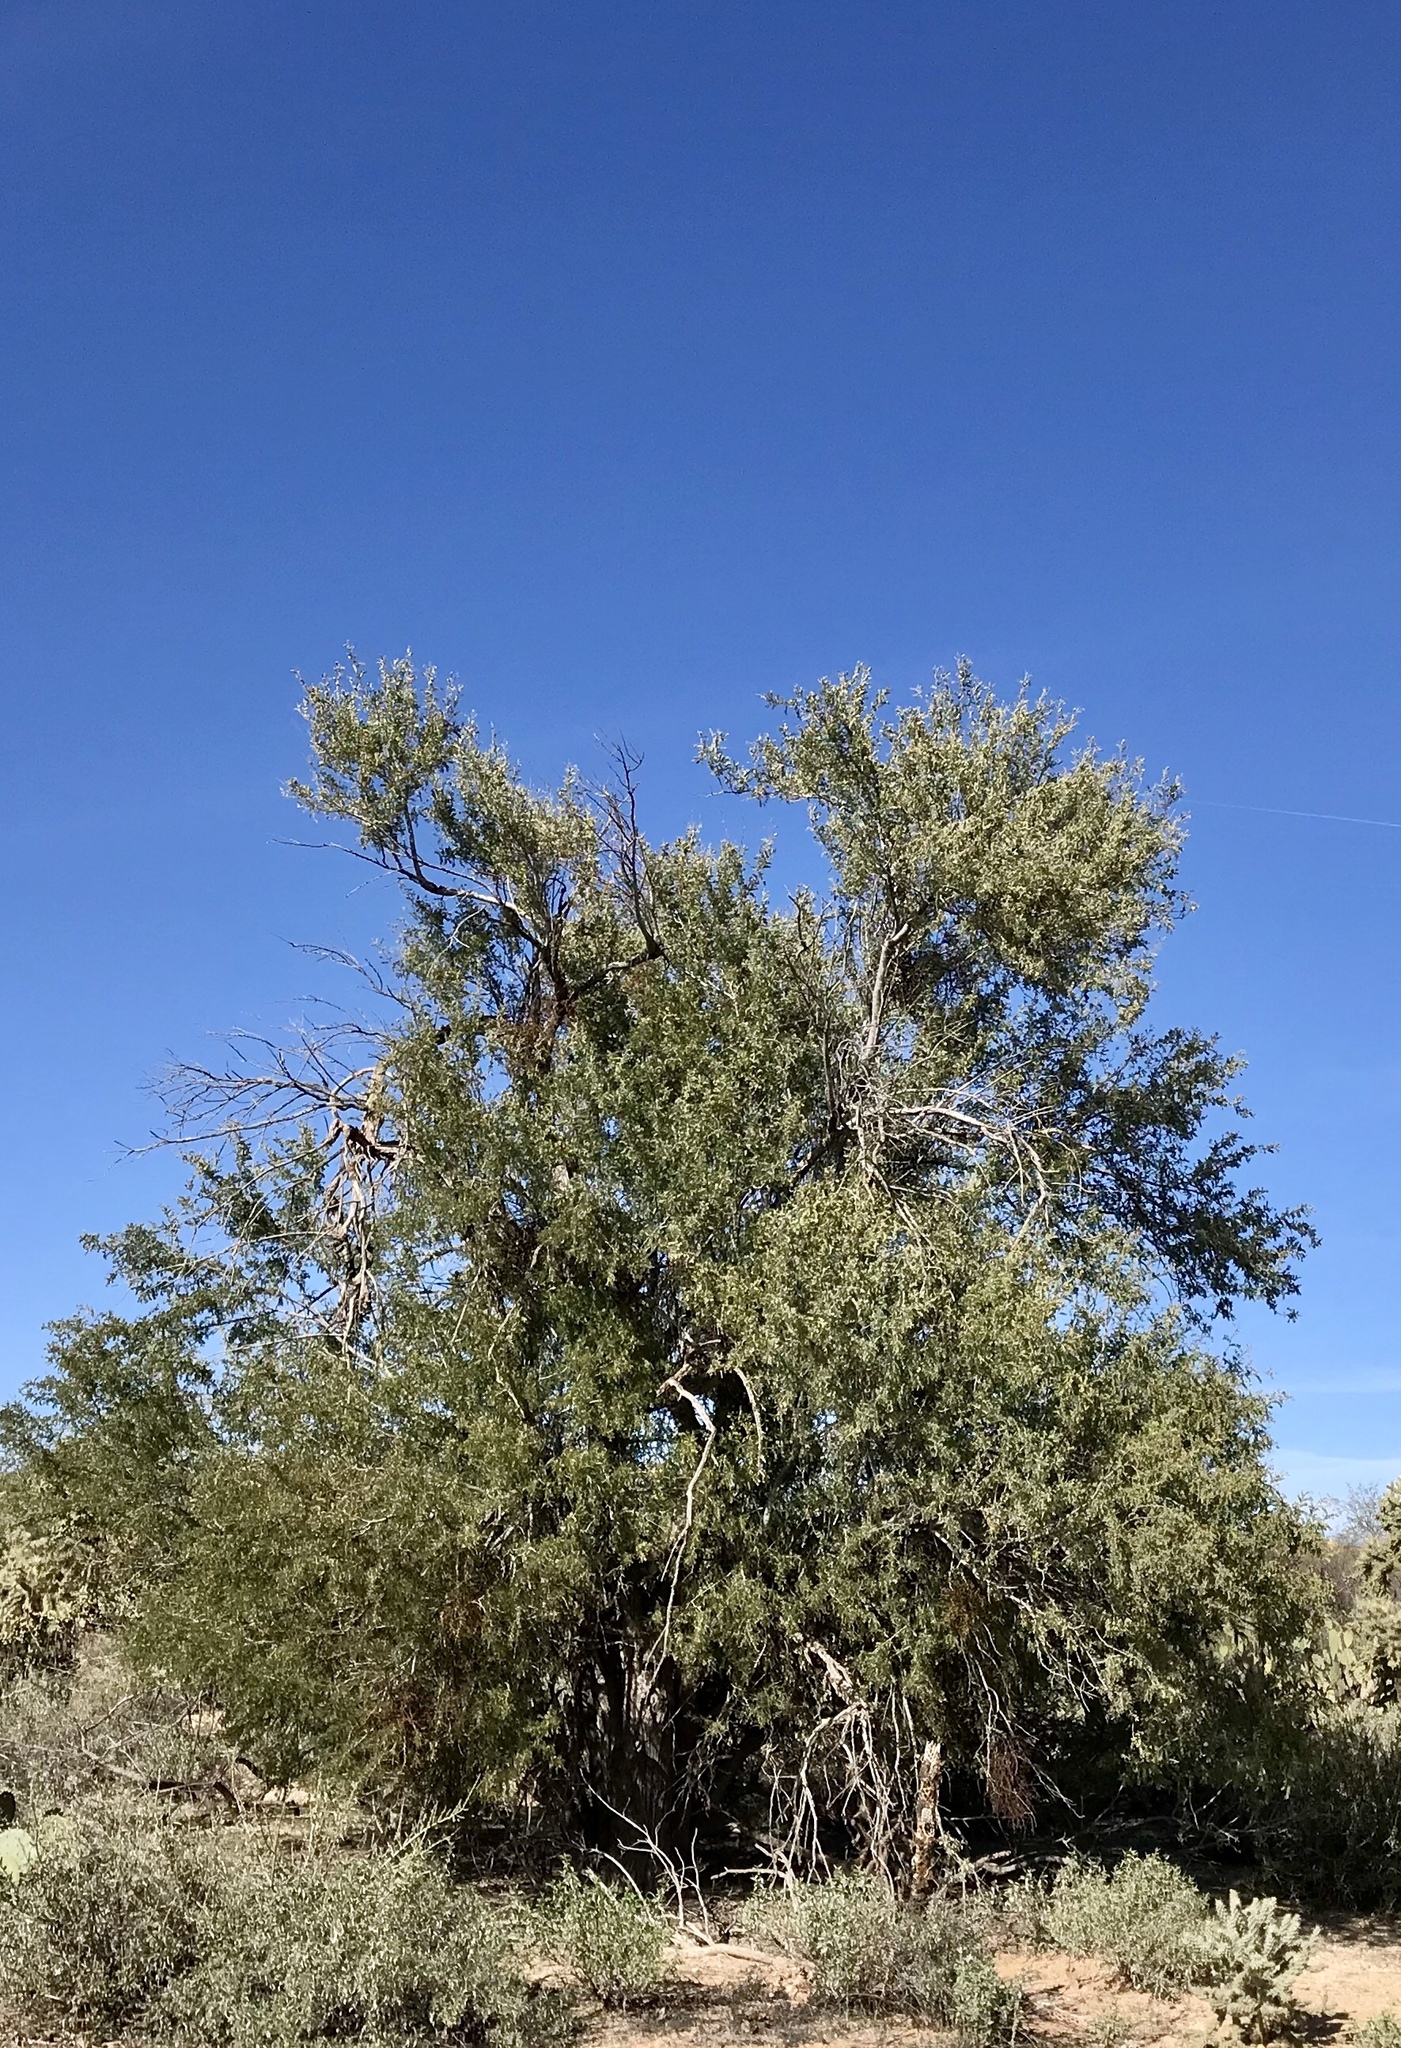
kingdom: Plantae
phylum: Tracheophyta
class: Magnoliopsida
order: Fabales
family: Fabaceae
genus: Olneya
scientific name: Olneya tesota
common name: Desert ironwood
